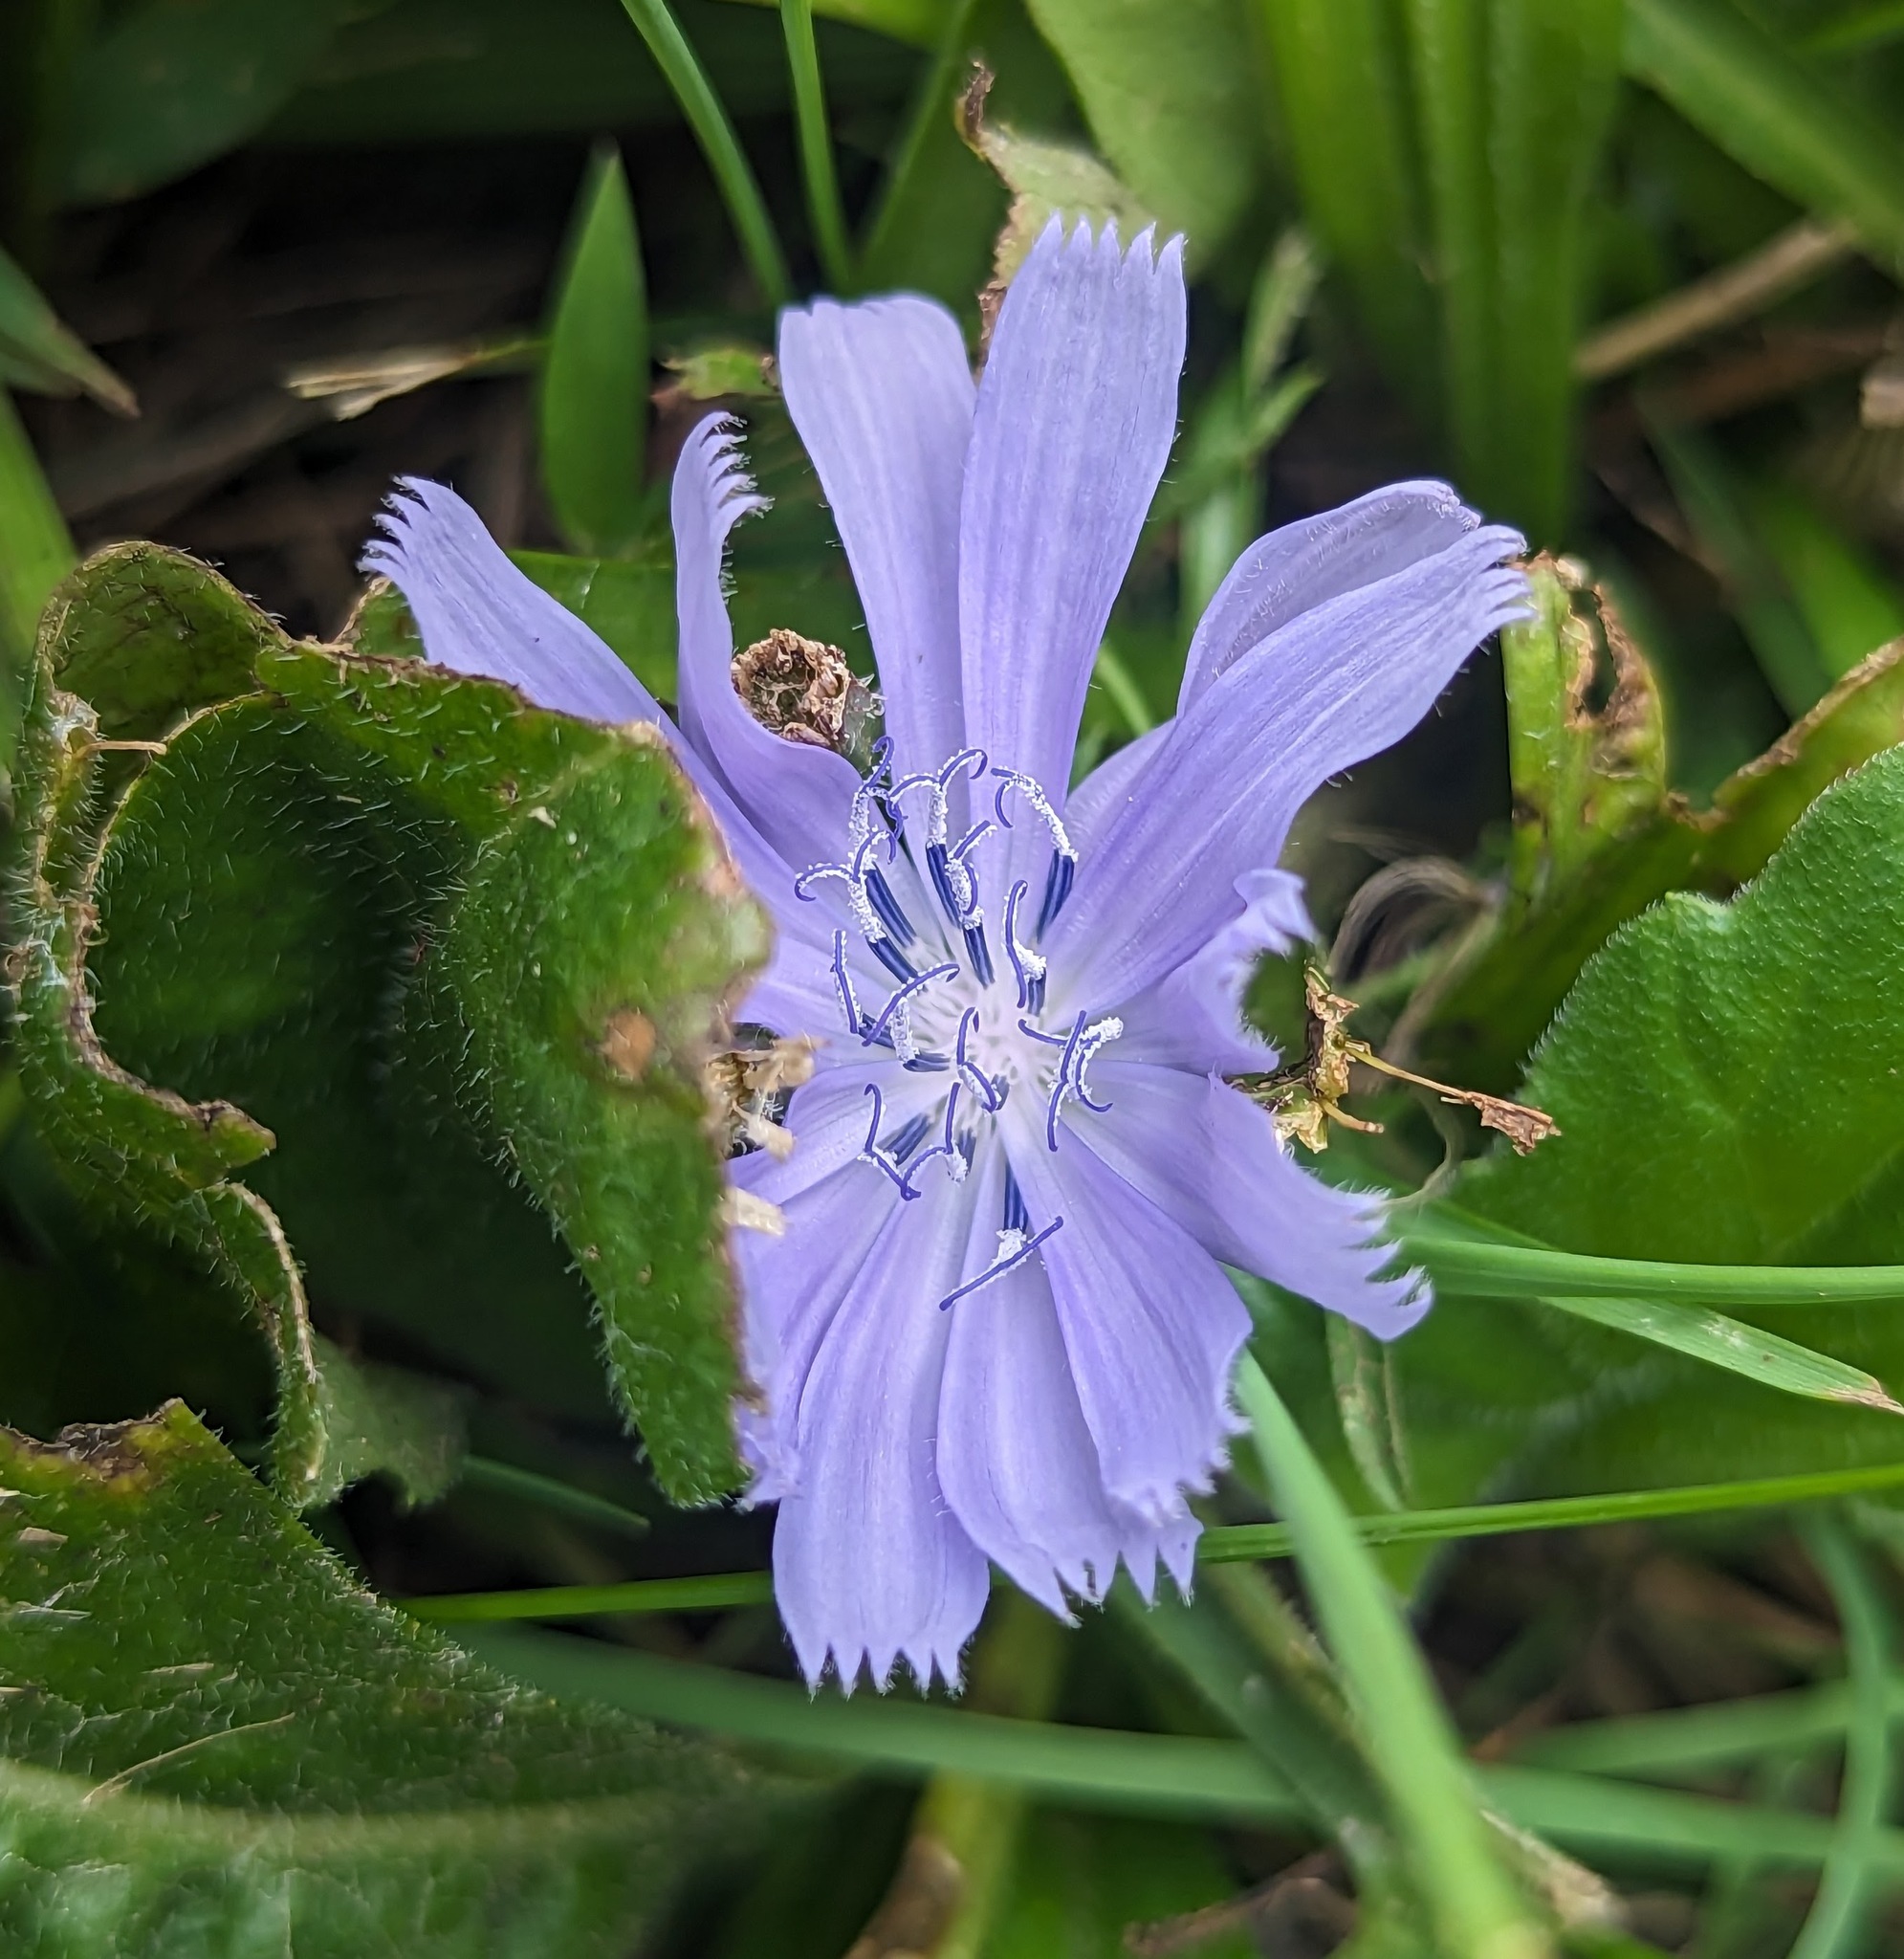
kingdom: Plantae
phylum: Tracheophyta
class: Magnoliopsida
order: Asterales
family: Asteraceae
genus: Cichorium
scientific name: Cichorium intybus
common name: Chicory
